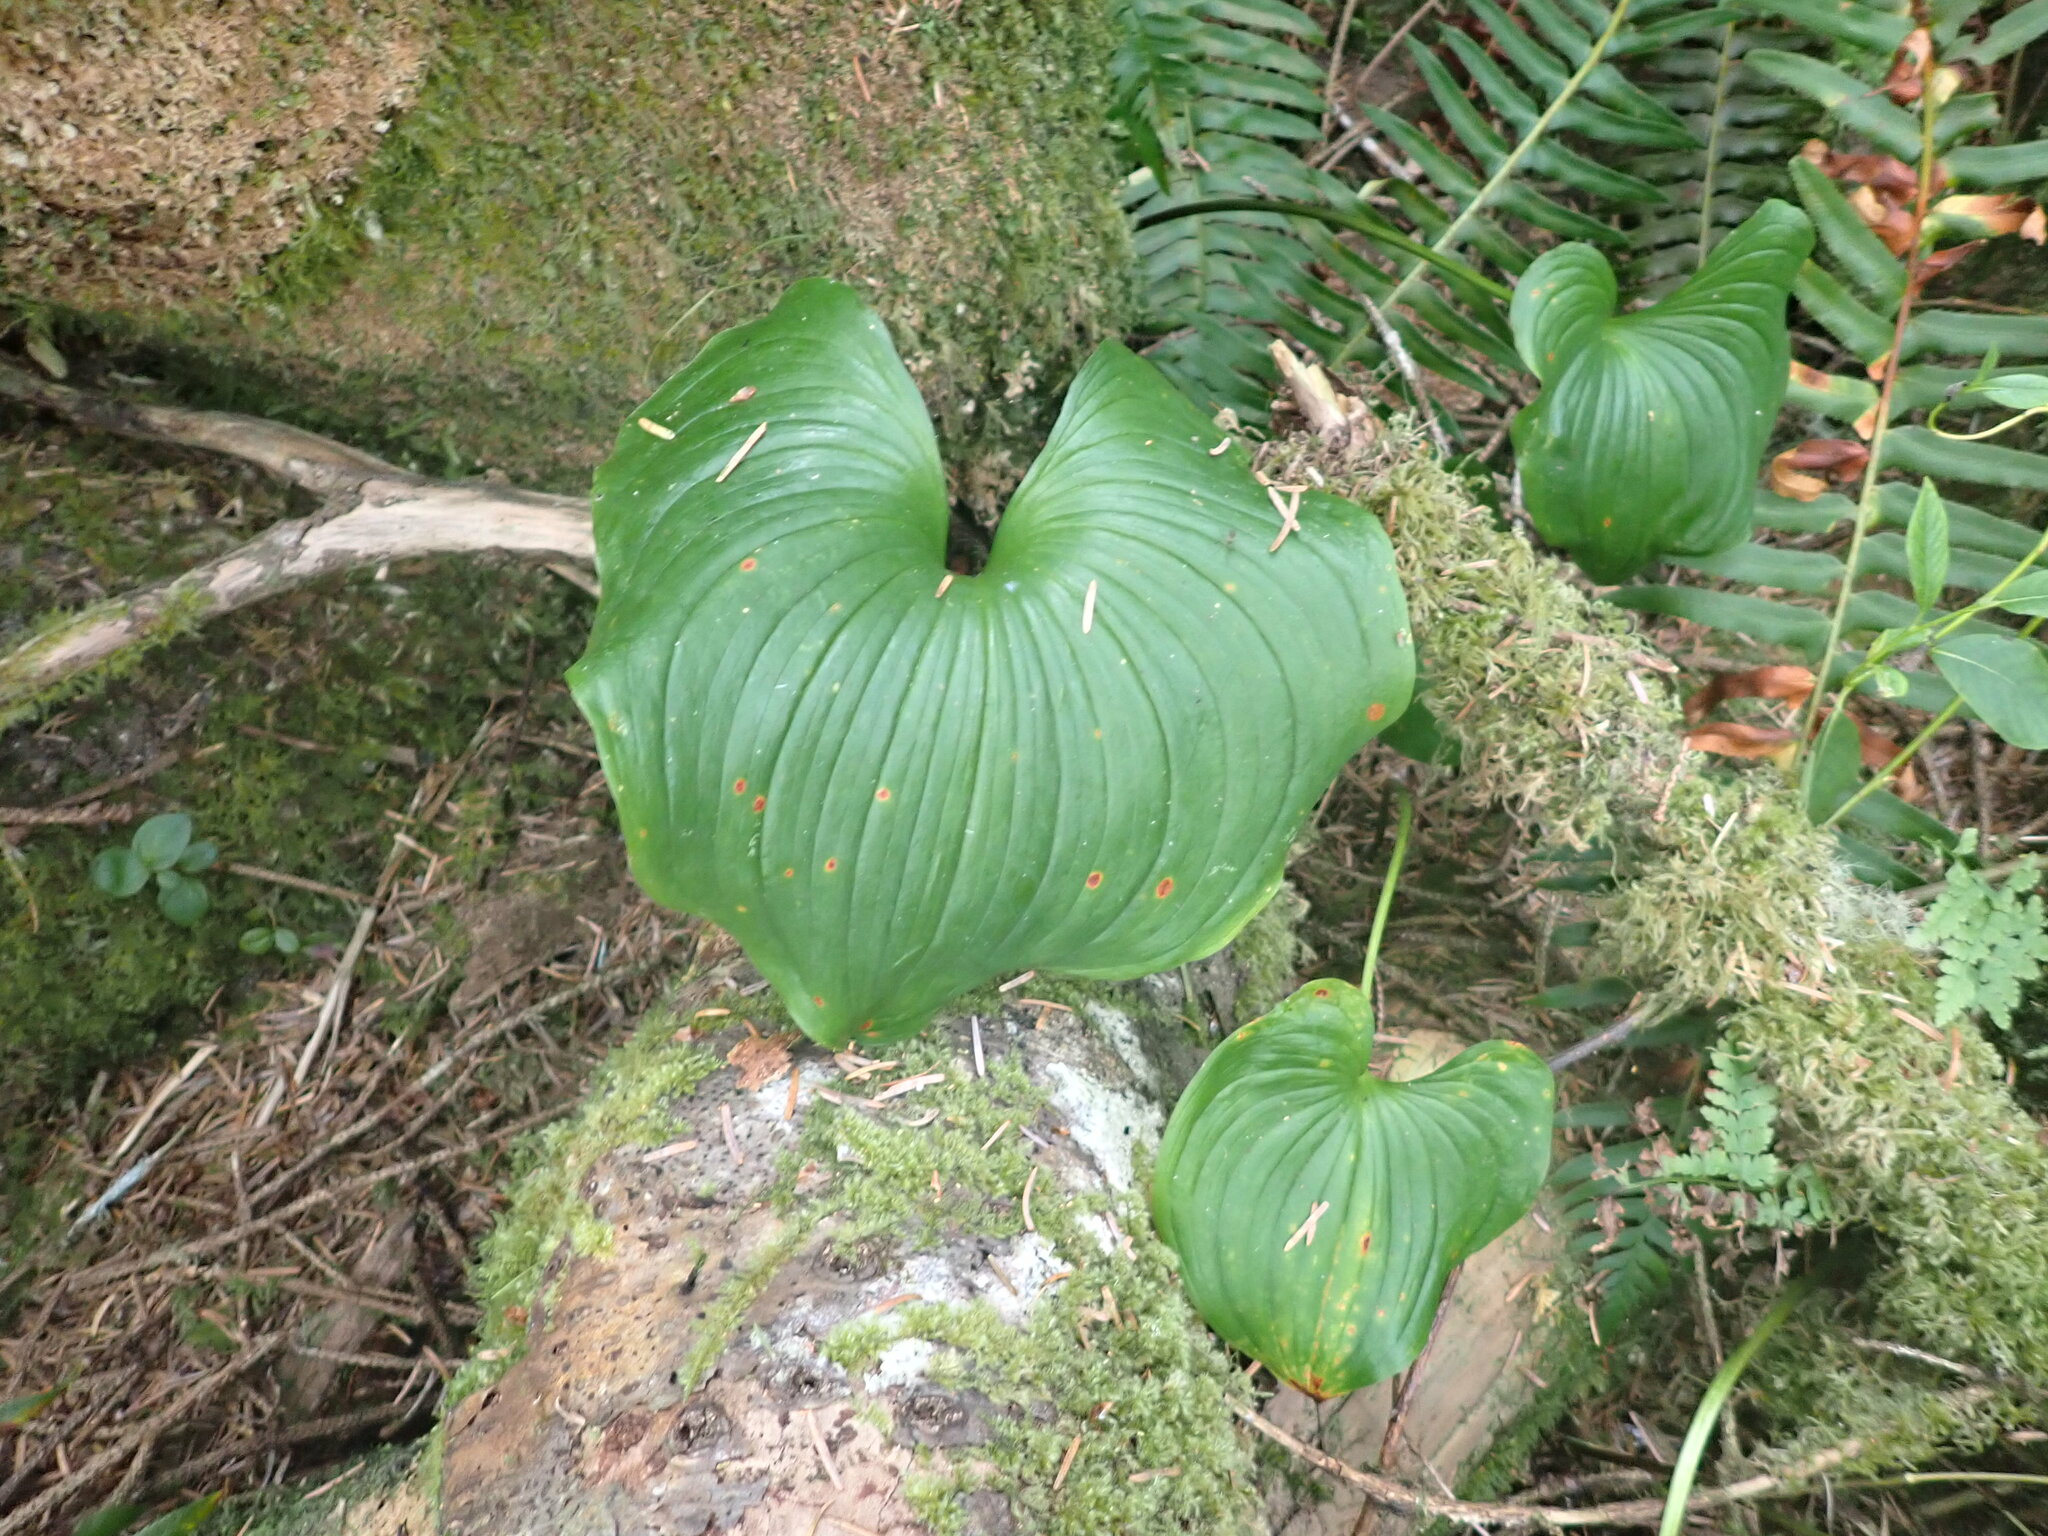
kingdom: Plantae
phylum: Tracheophyta
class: Liliopsida
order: Asparagales
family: Asparagaceae
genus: Maianthemum
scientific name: Maianthemum dilatatum
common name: False lily-of-the-valley
